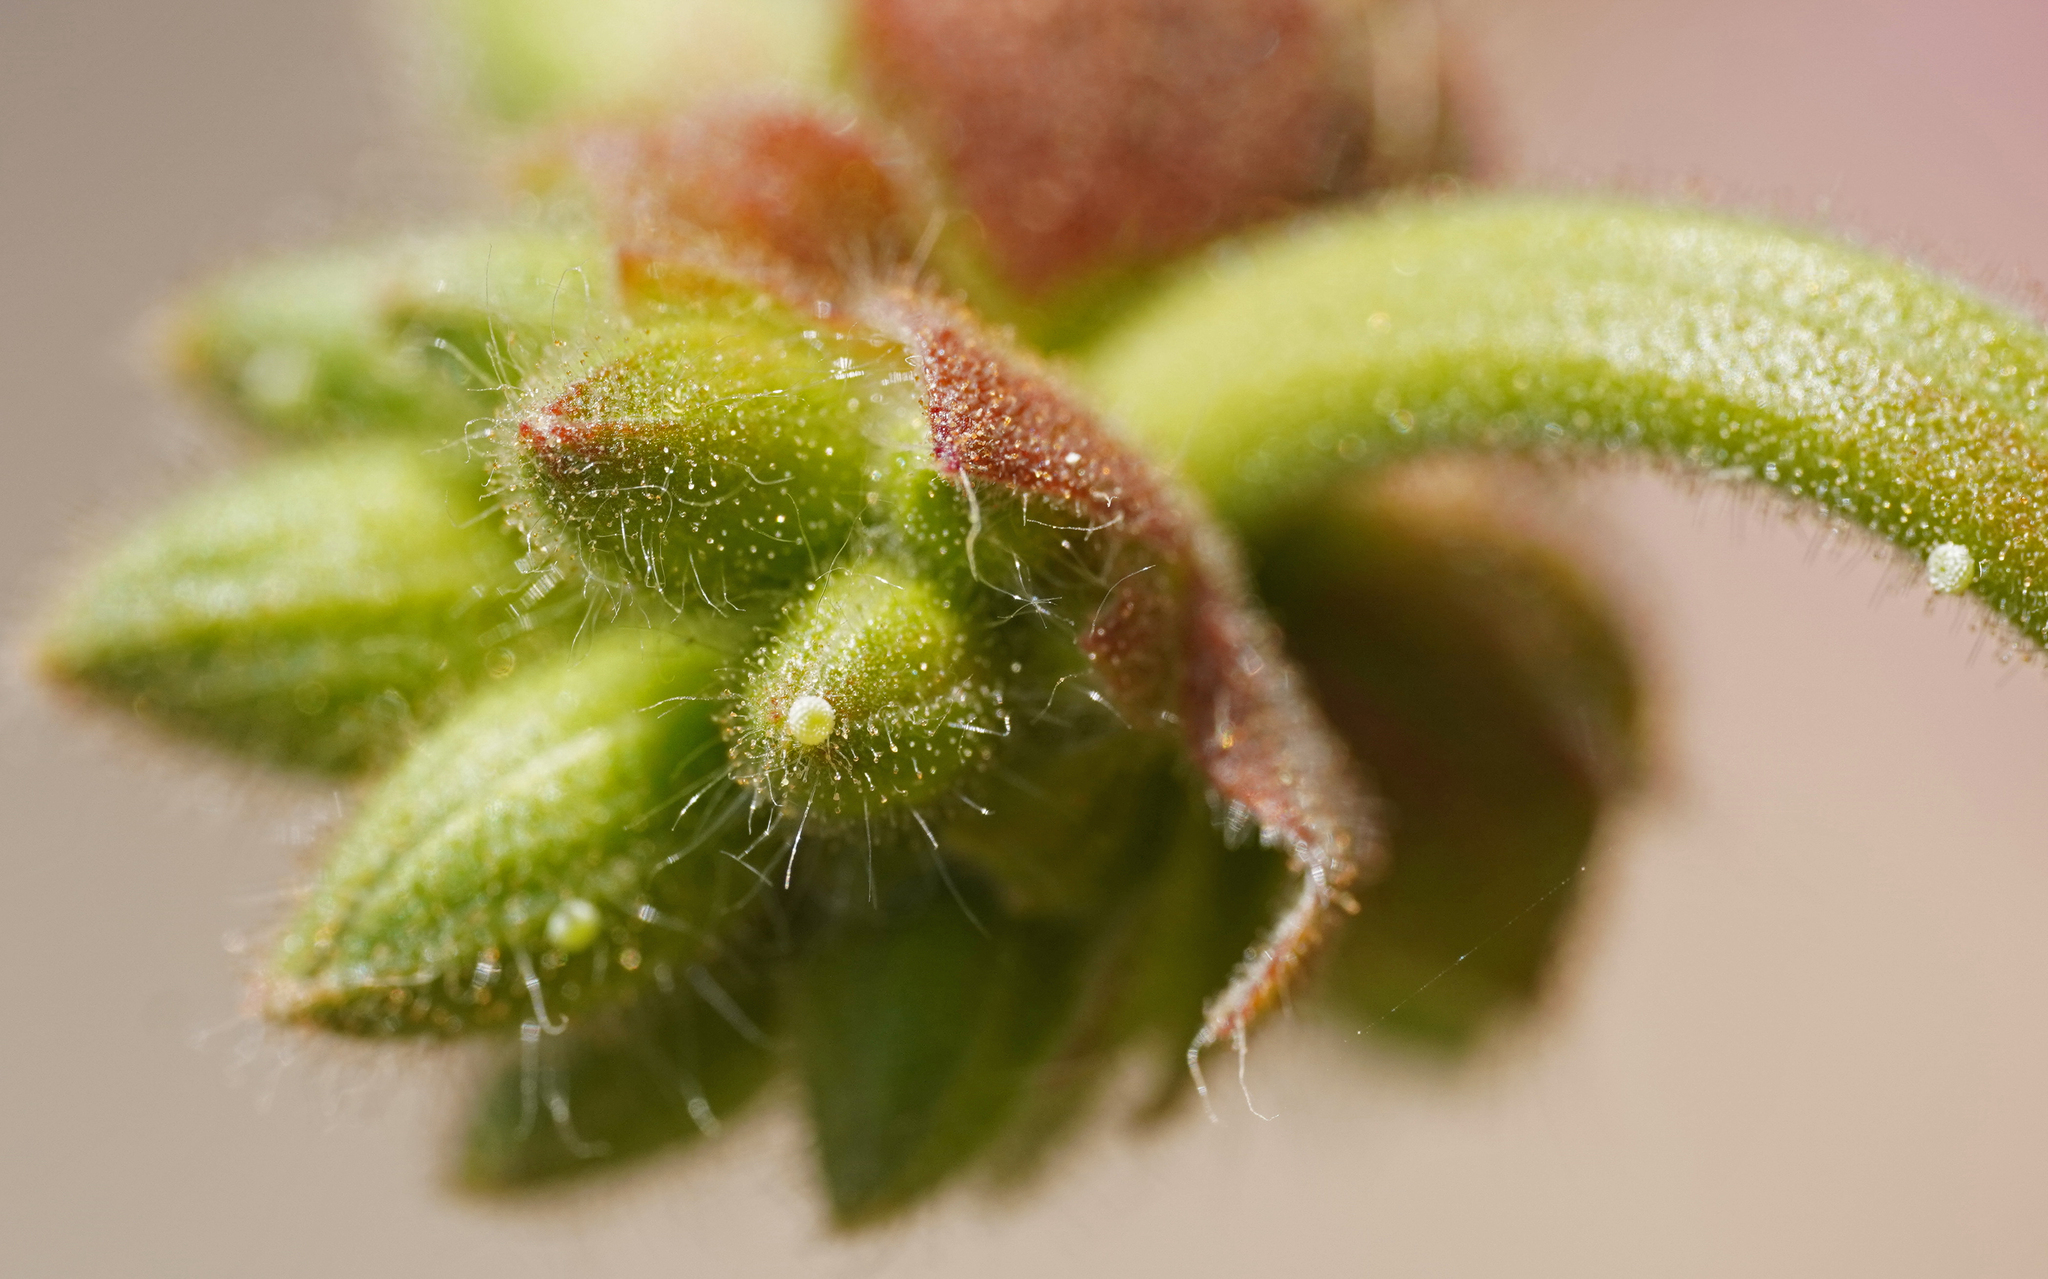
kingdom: Animalia
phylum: Arthropoda
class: Insecta
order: Lepidoptera
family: Lycaenidae
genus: Cacyreus
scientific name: Cacyreus marshalli
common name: Geranium bronze
